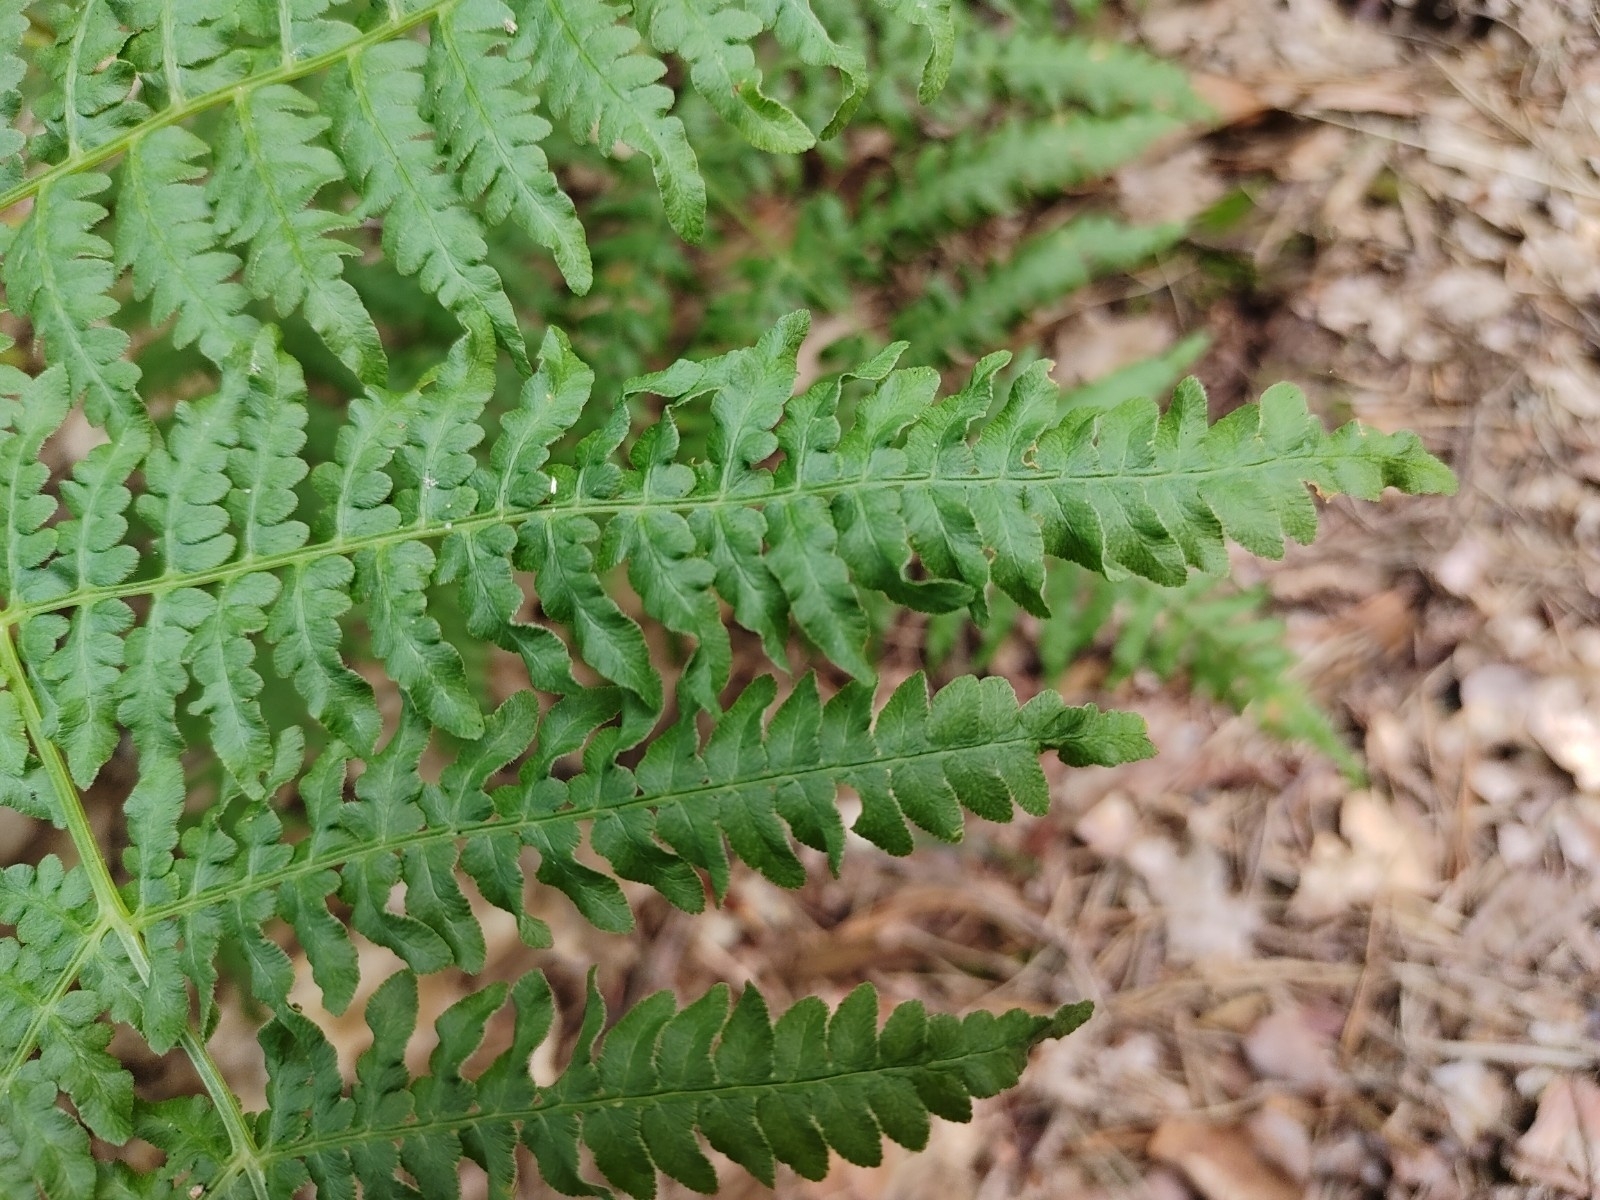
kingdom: Plantae
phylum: Tracheophyta
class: Polypodiopsida
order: Polypodiales
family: Dennstaedtiaceae
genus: Pteridium
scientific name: Pteridium aquilinum
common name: Bracken
